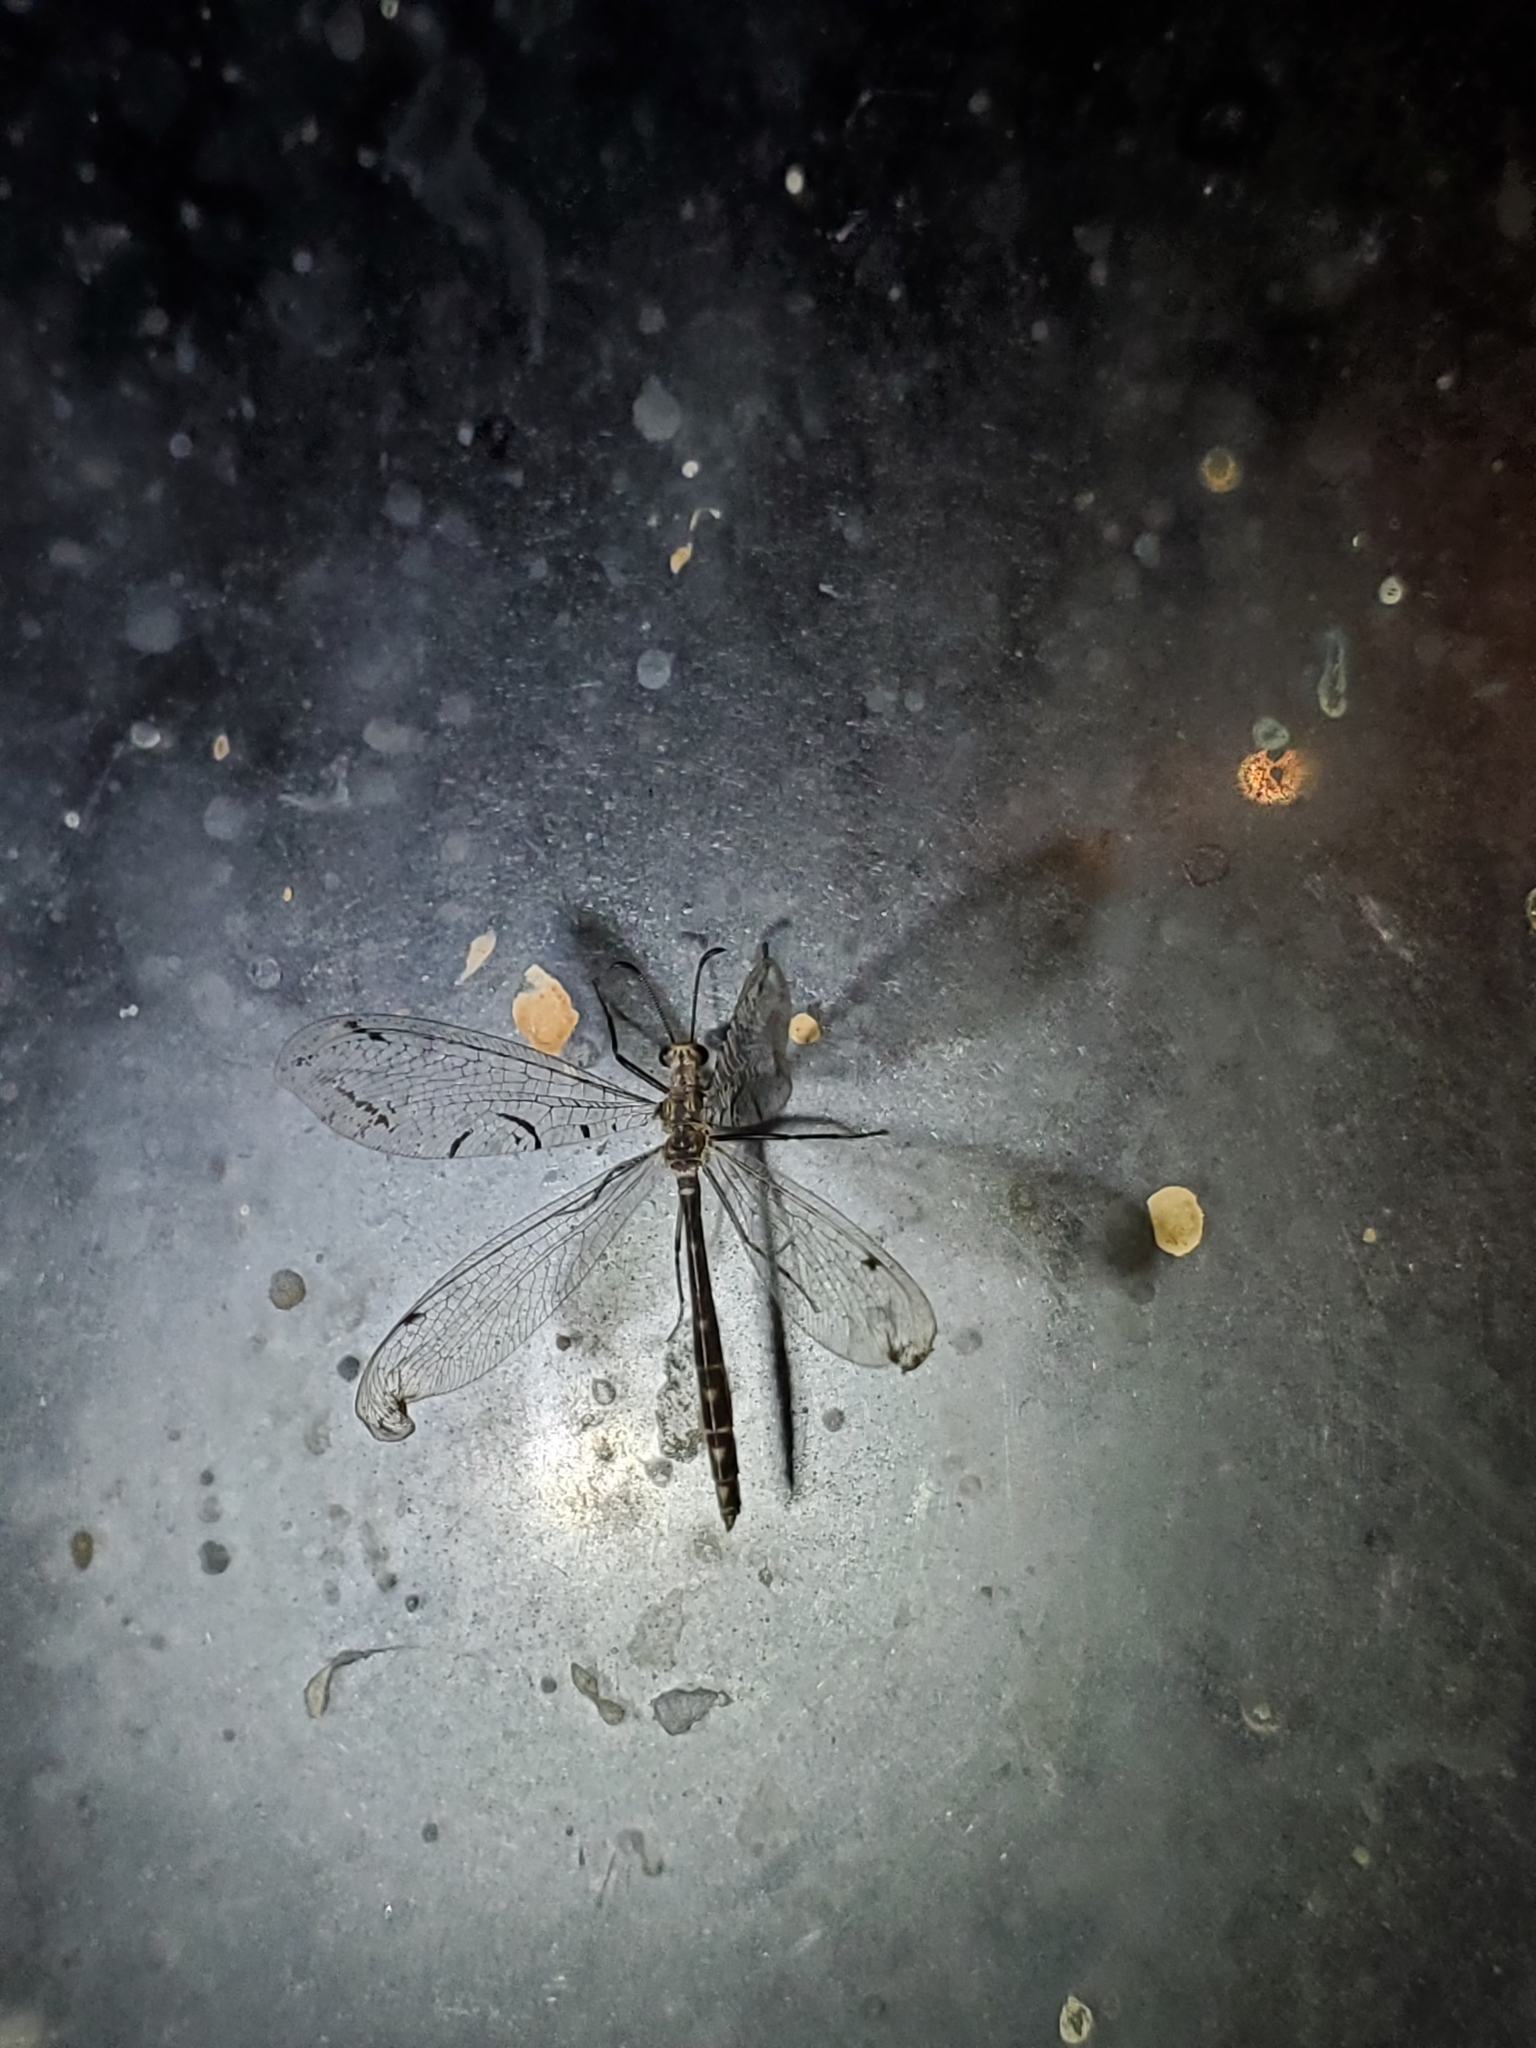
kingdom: Animalia
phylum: Arthropoda
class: Insecta
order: Neuroptera
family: Myrmeleontidae
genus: Dendroleon
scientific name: Dendroleon speciosus
